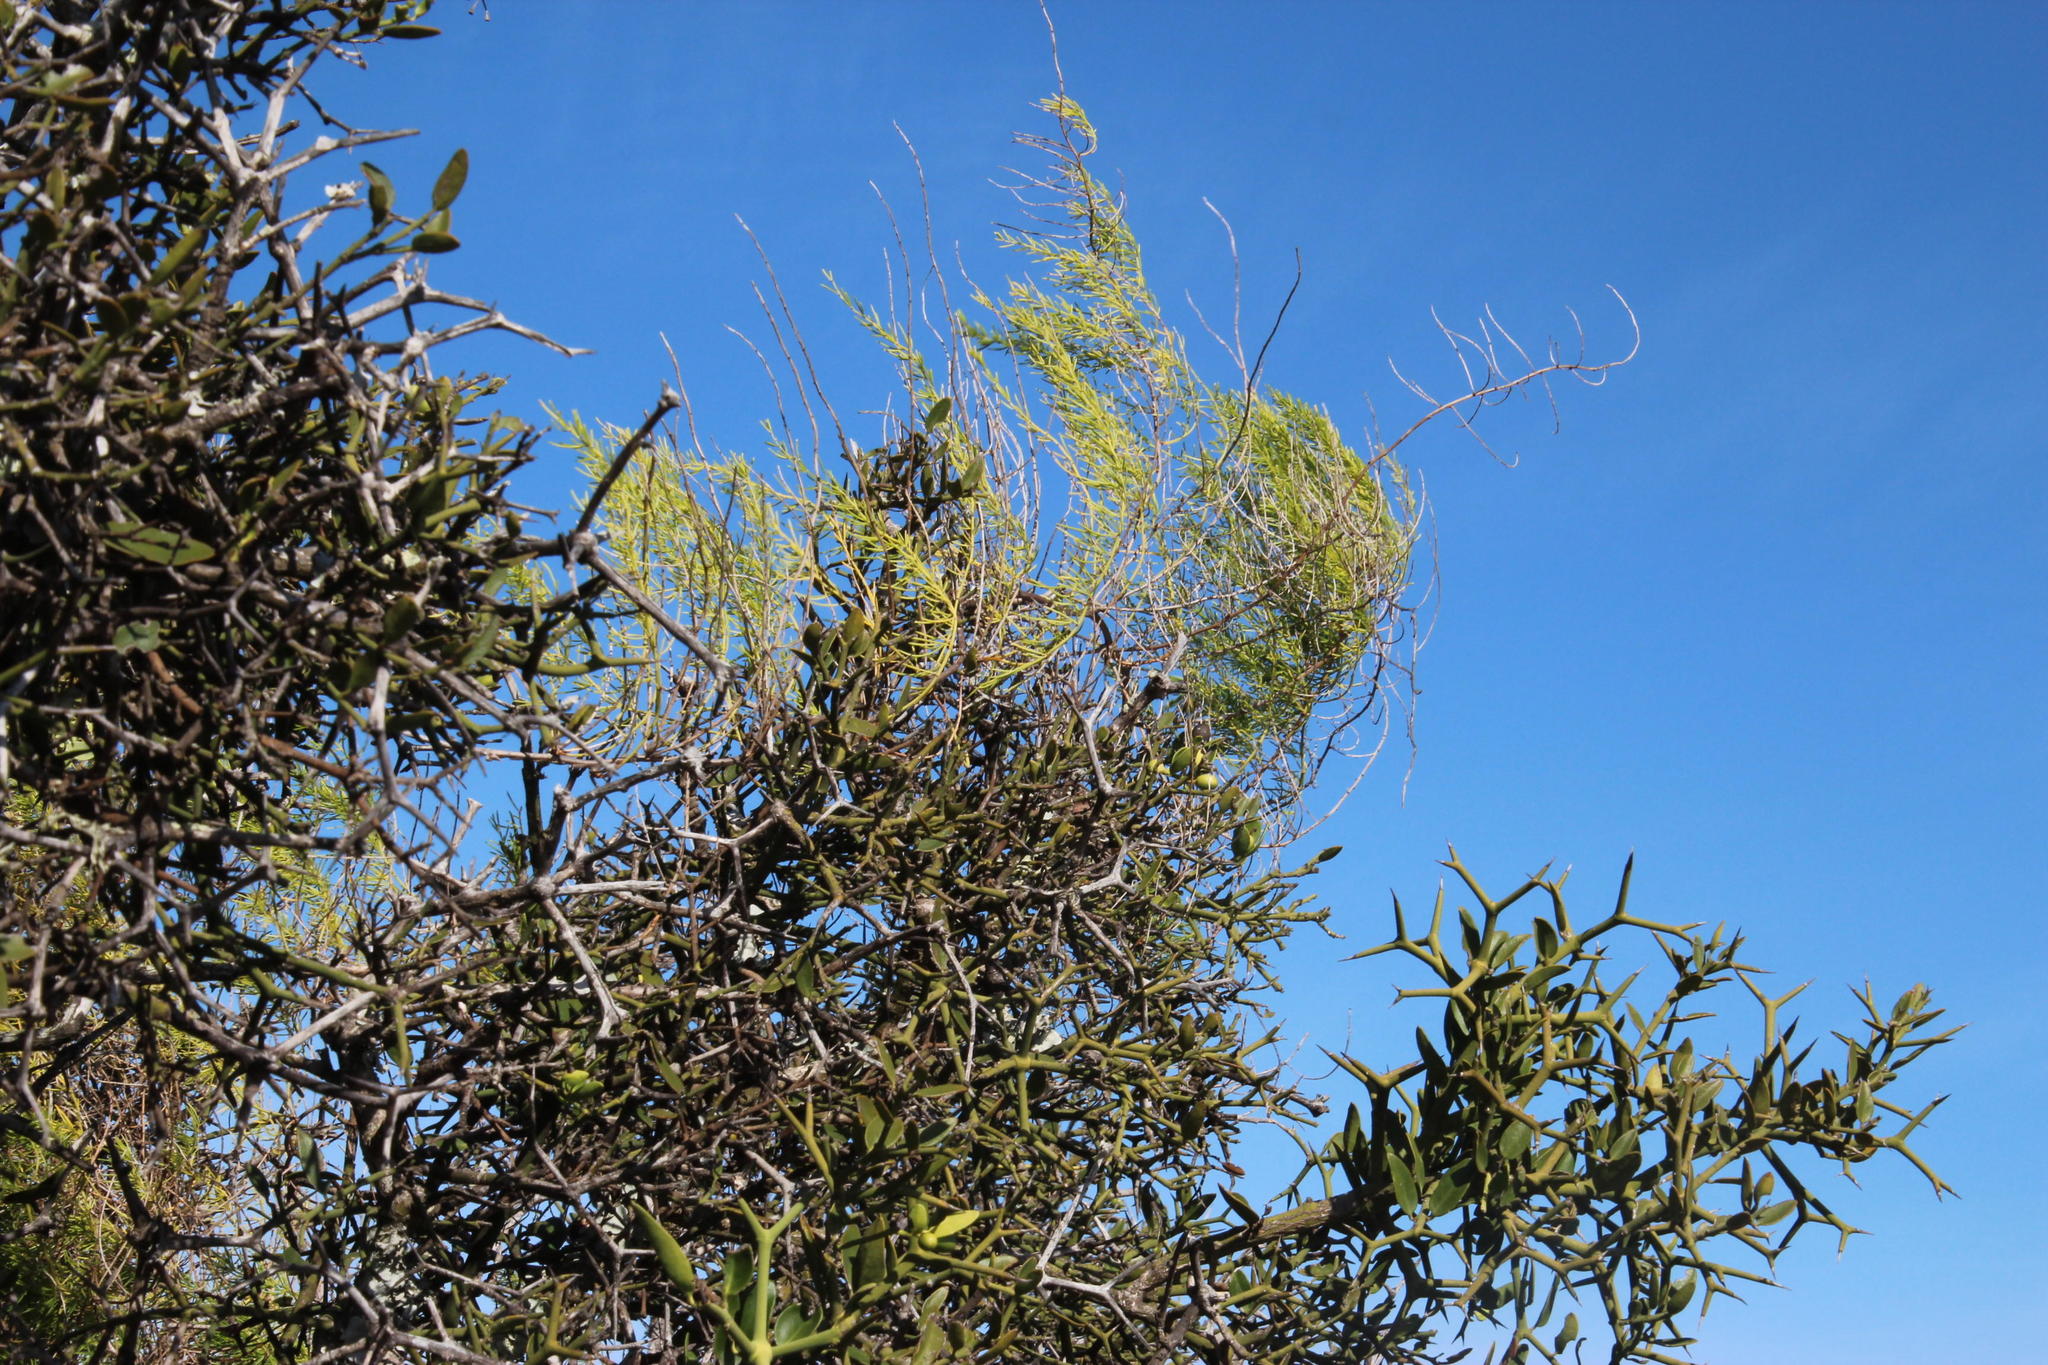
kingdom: Plantae
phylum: Tracheophyta
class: Liliopsida
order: Asparagales
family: Asparagaceae
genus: Asparagus
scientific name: Asparagus aethiopicus
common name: Sprenger's asparagus fern
